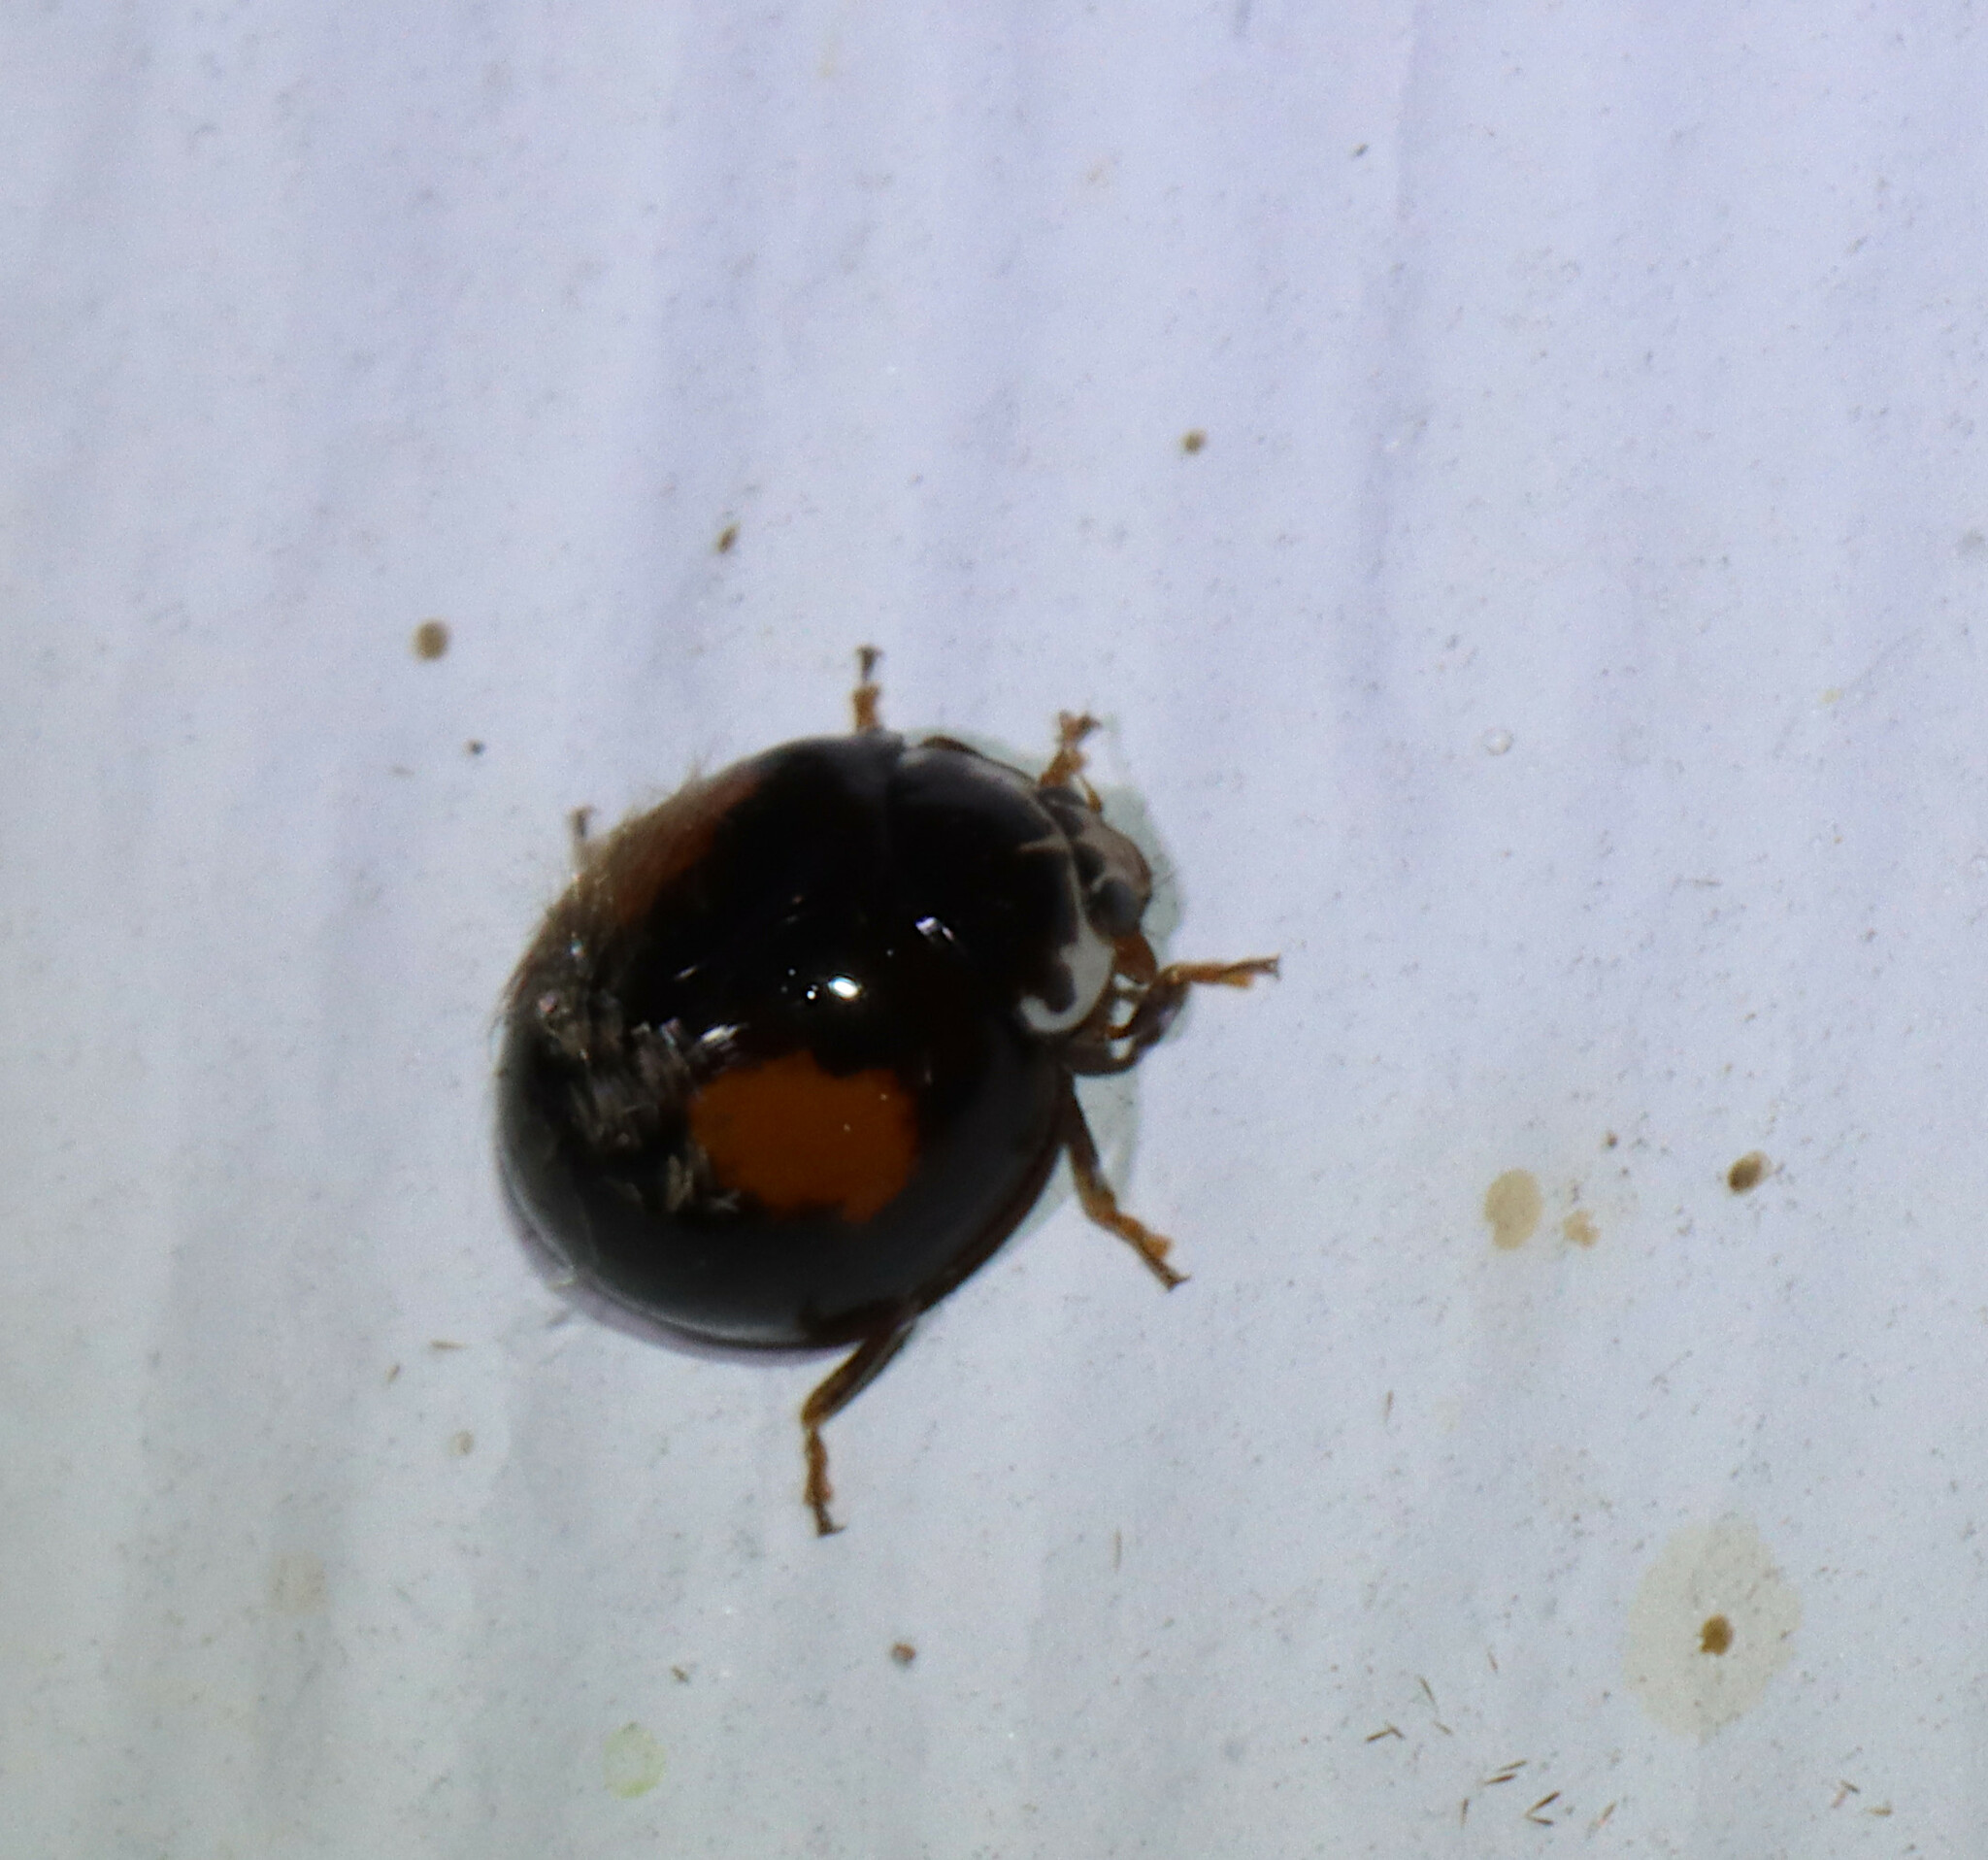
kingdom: Animalia
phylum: Arthropoda
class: Insecta
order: Coleoptera
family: Coccinellidae
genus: Olla
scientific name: Olla v-nigrum
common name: Ashy gray lady beetle
